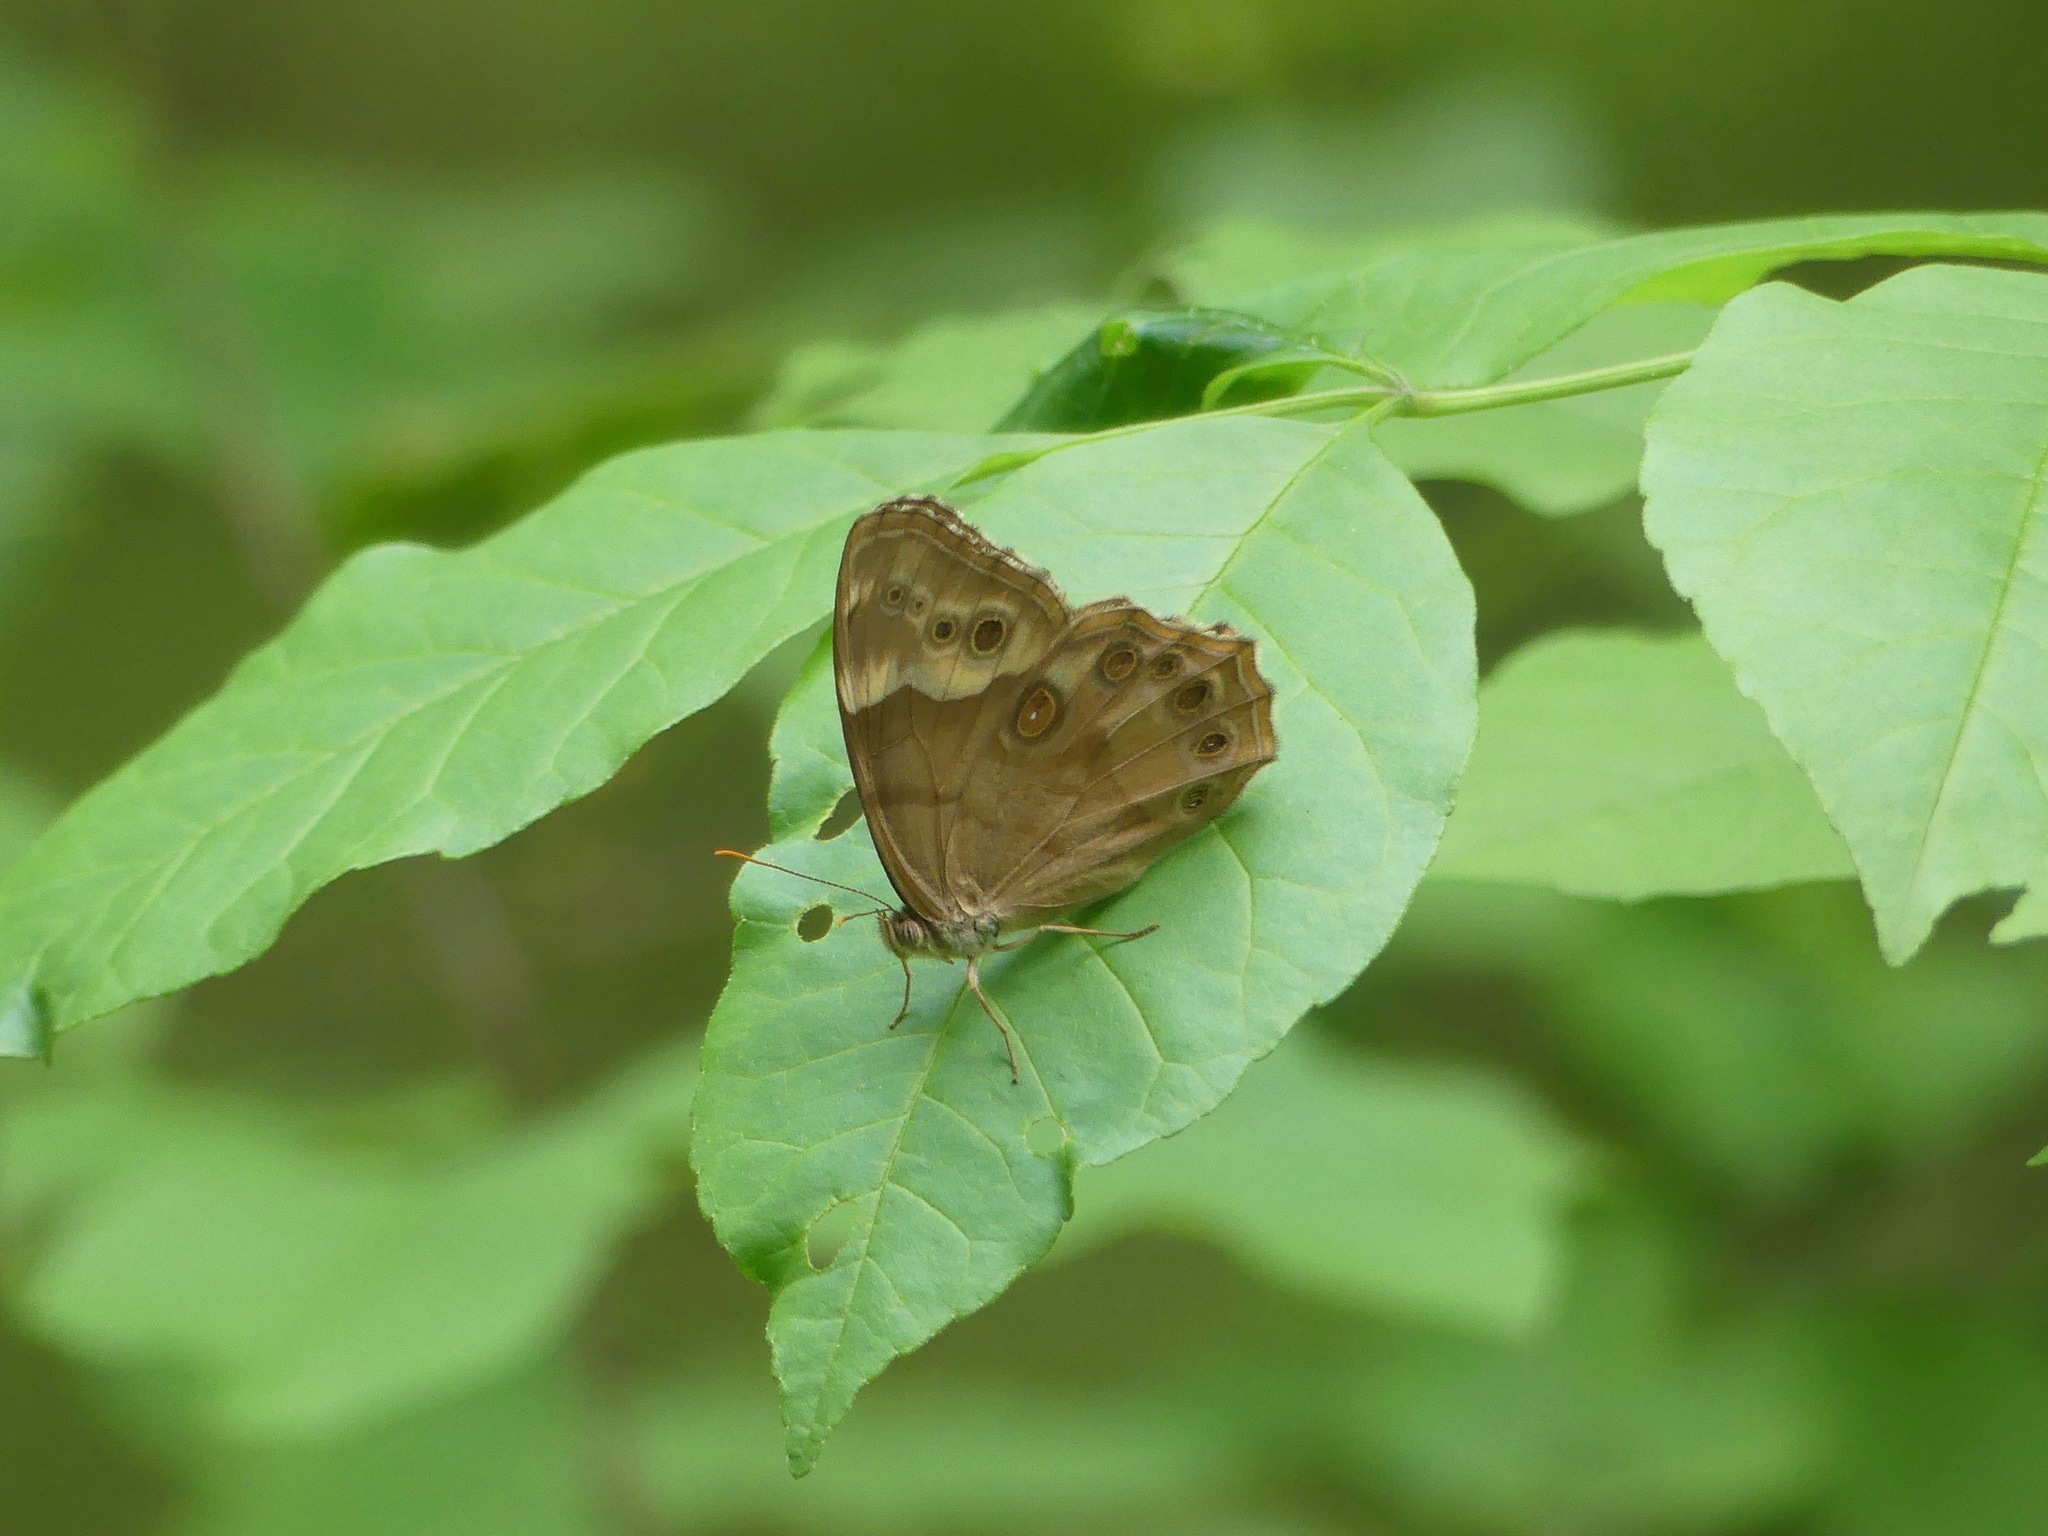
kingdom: Animalia
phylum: Arthropoda
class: Insecta
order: Lepidoptera
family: Nymphalidae
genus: Enodia
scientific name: Enodia portlandia
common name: Southern pearly-eye
